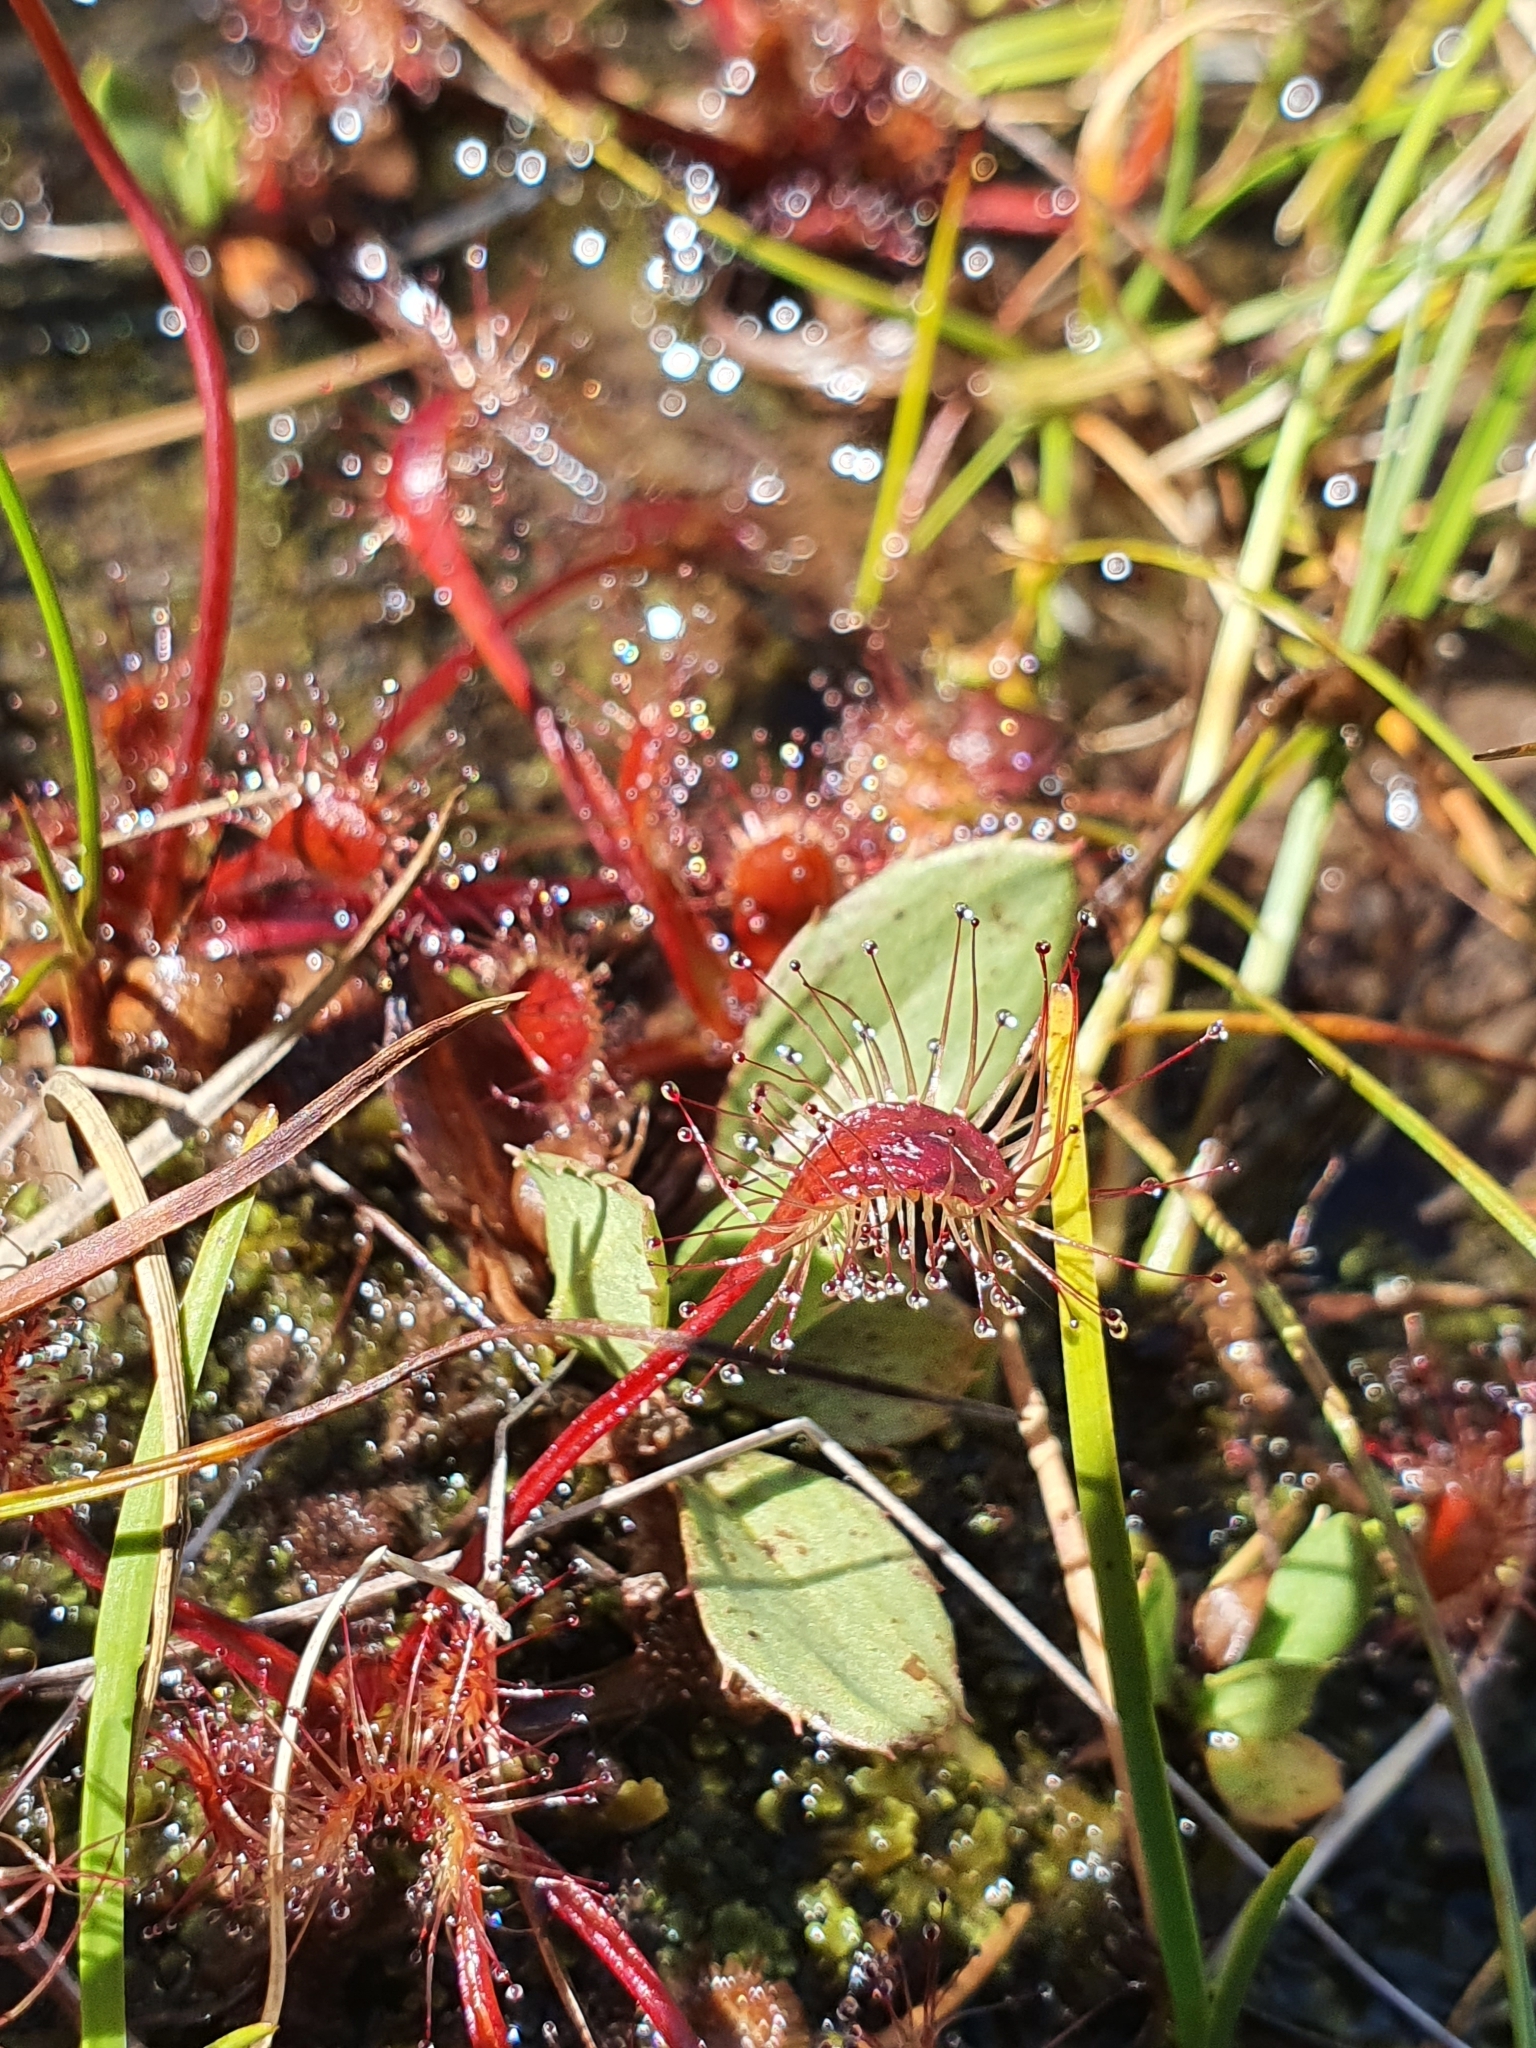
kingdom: Plantae
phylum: Tracheophyta
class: Magnoliopsida
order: Caryophyllales
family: Droseraceae
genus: Drosera
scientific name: Drosera stenopetala
